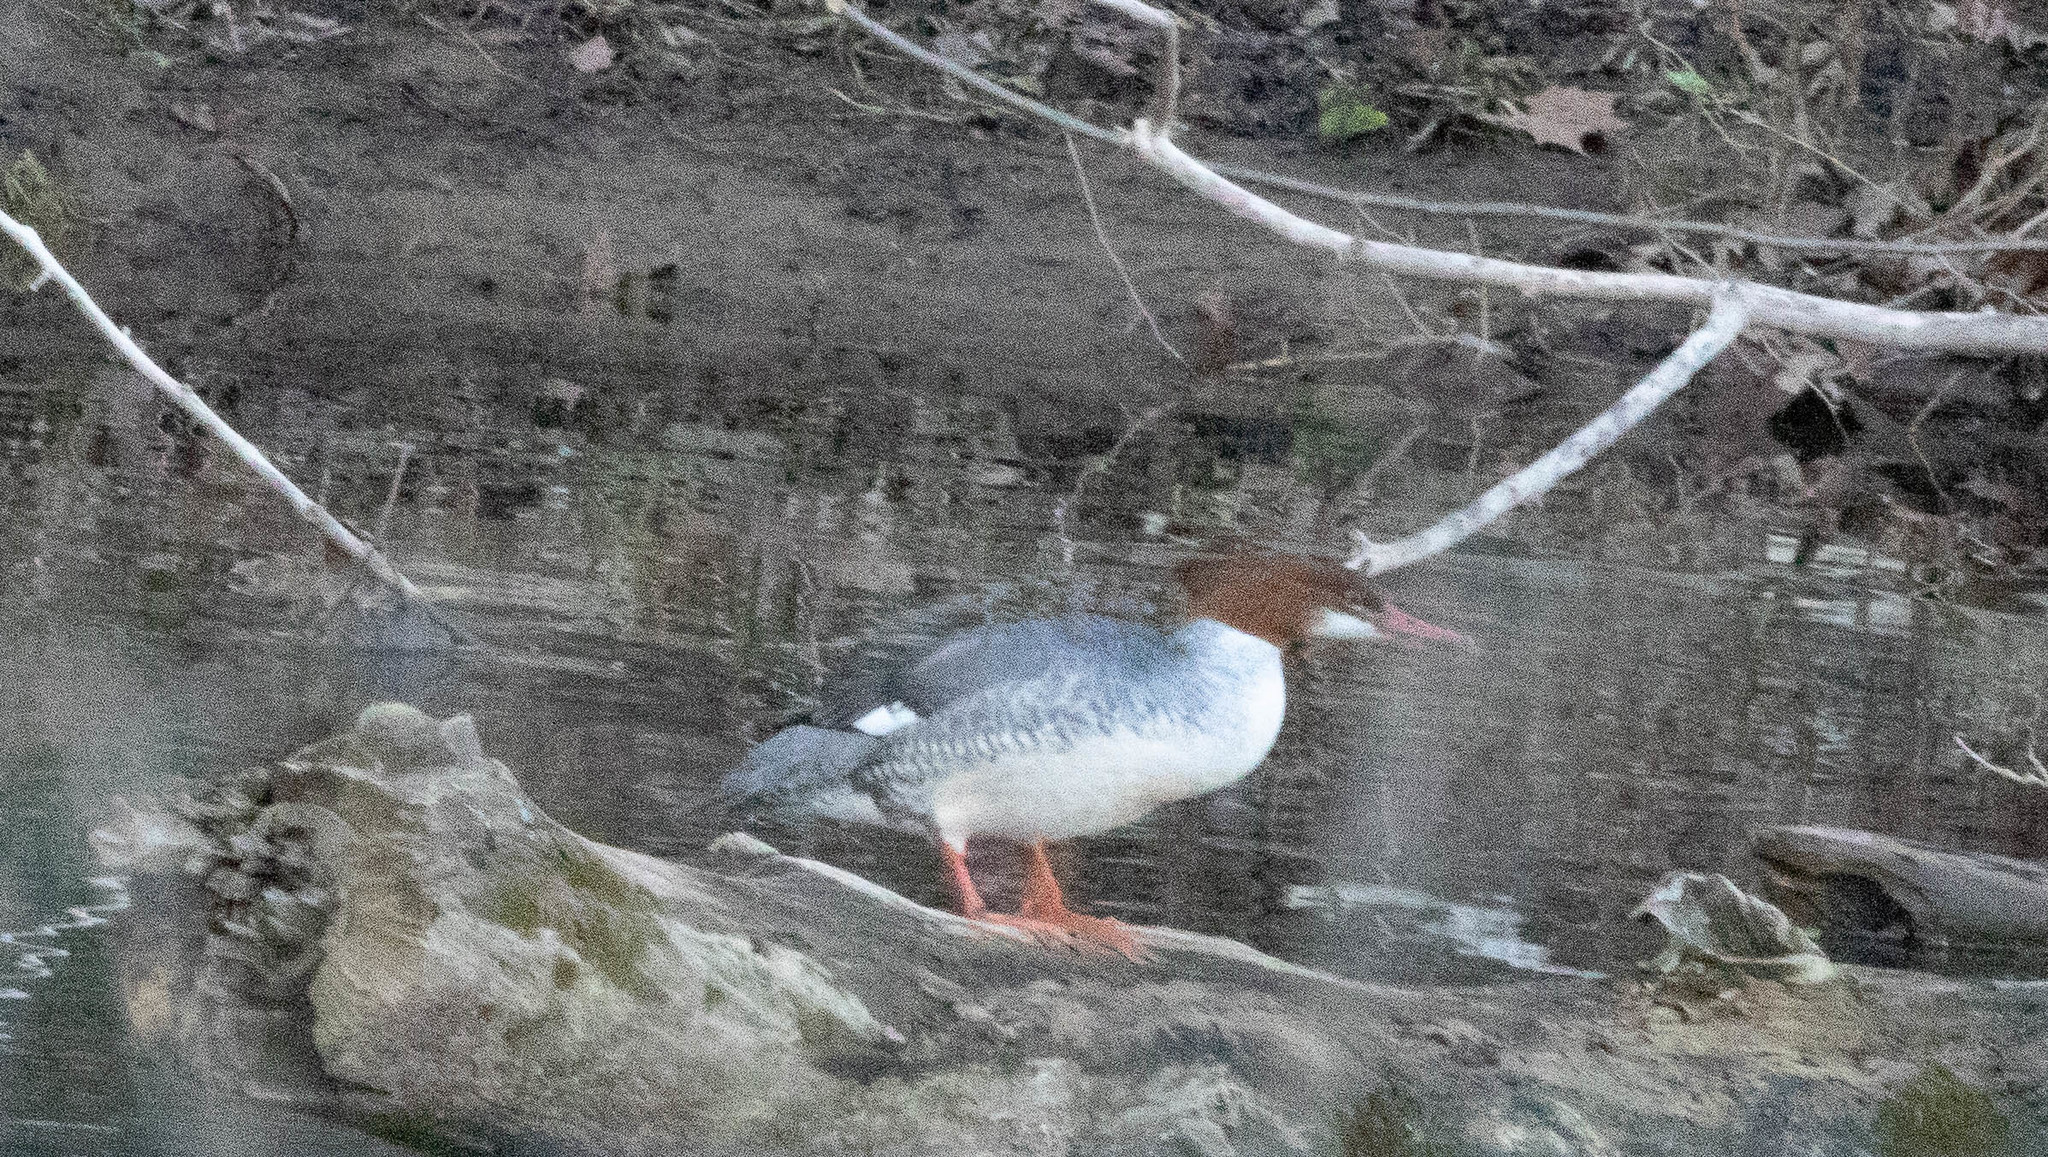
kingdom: Animalia
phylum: Chordata
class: Aves
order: Anseriformes
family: Anatidae
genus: Mergus
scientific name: Mergus merganser
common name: Common merganser
